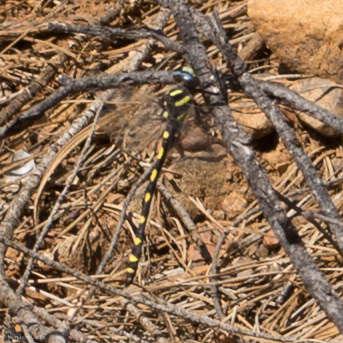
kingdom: Animalia
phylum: Arthropoda
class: Insecta
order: Odonata
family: Cordulegastridae
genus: Cordulegaster
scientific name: Cordulegaster dorsalis
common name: Pacific spiketail
